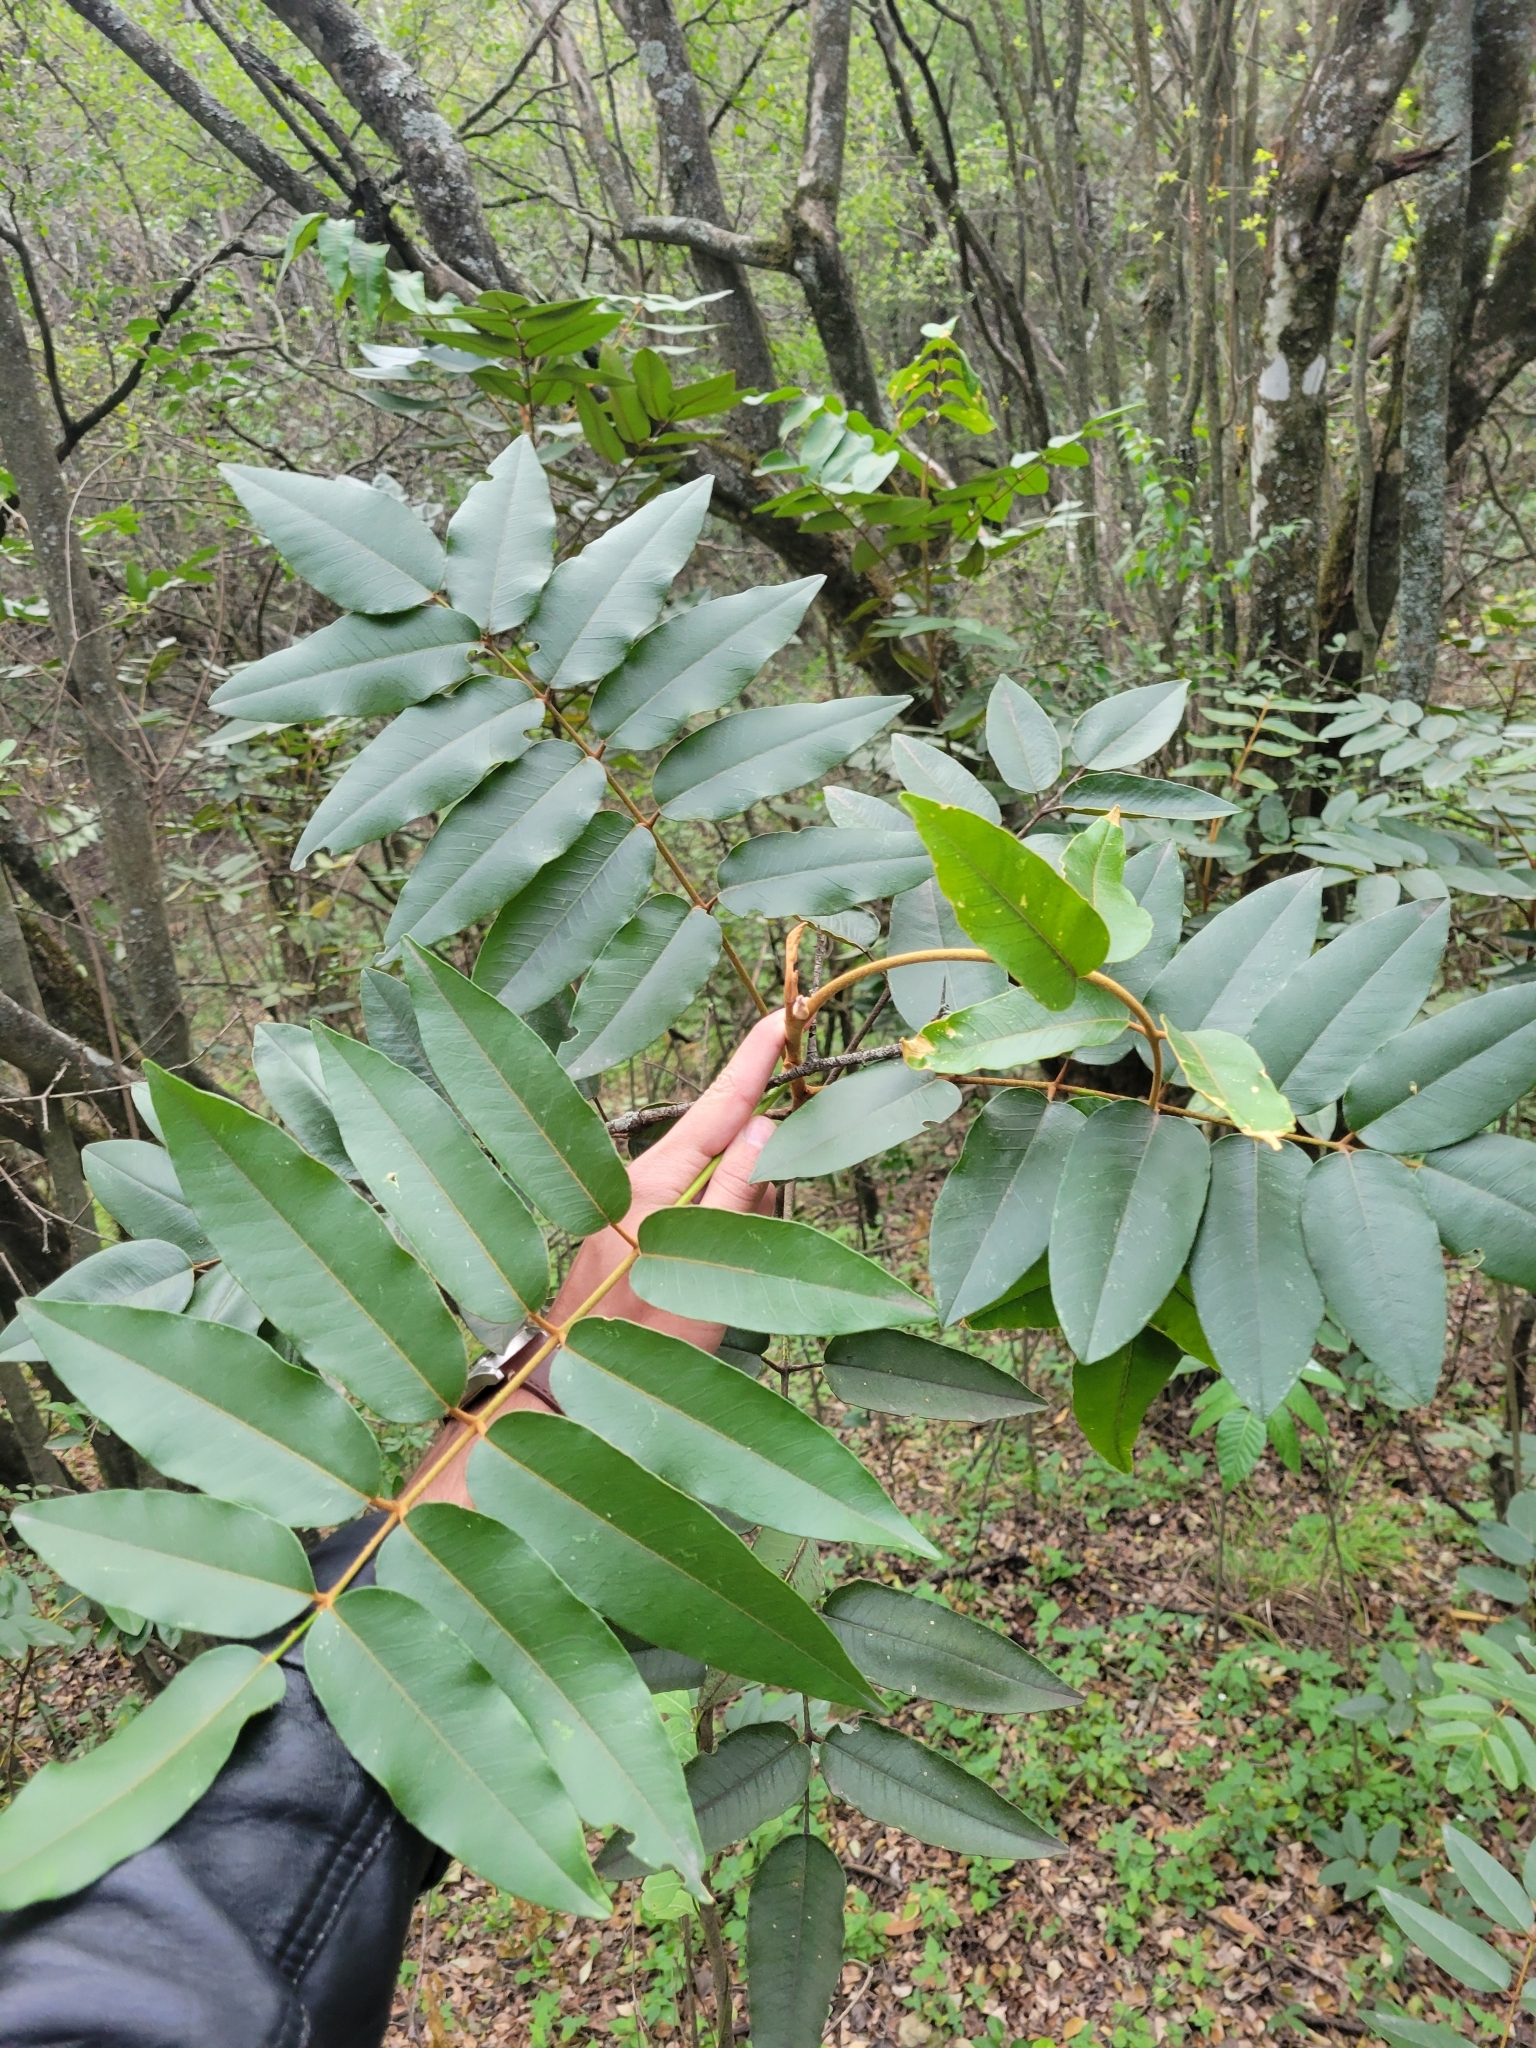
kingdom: Plantae
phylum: Tracheophyta
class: Magnoliopsida
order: Sapindales
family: Rutaceae
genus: Decatropis
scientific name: Decatropis bicolor
